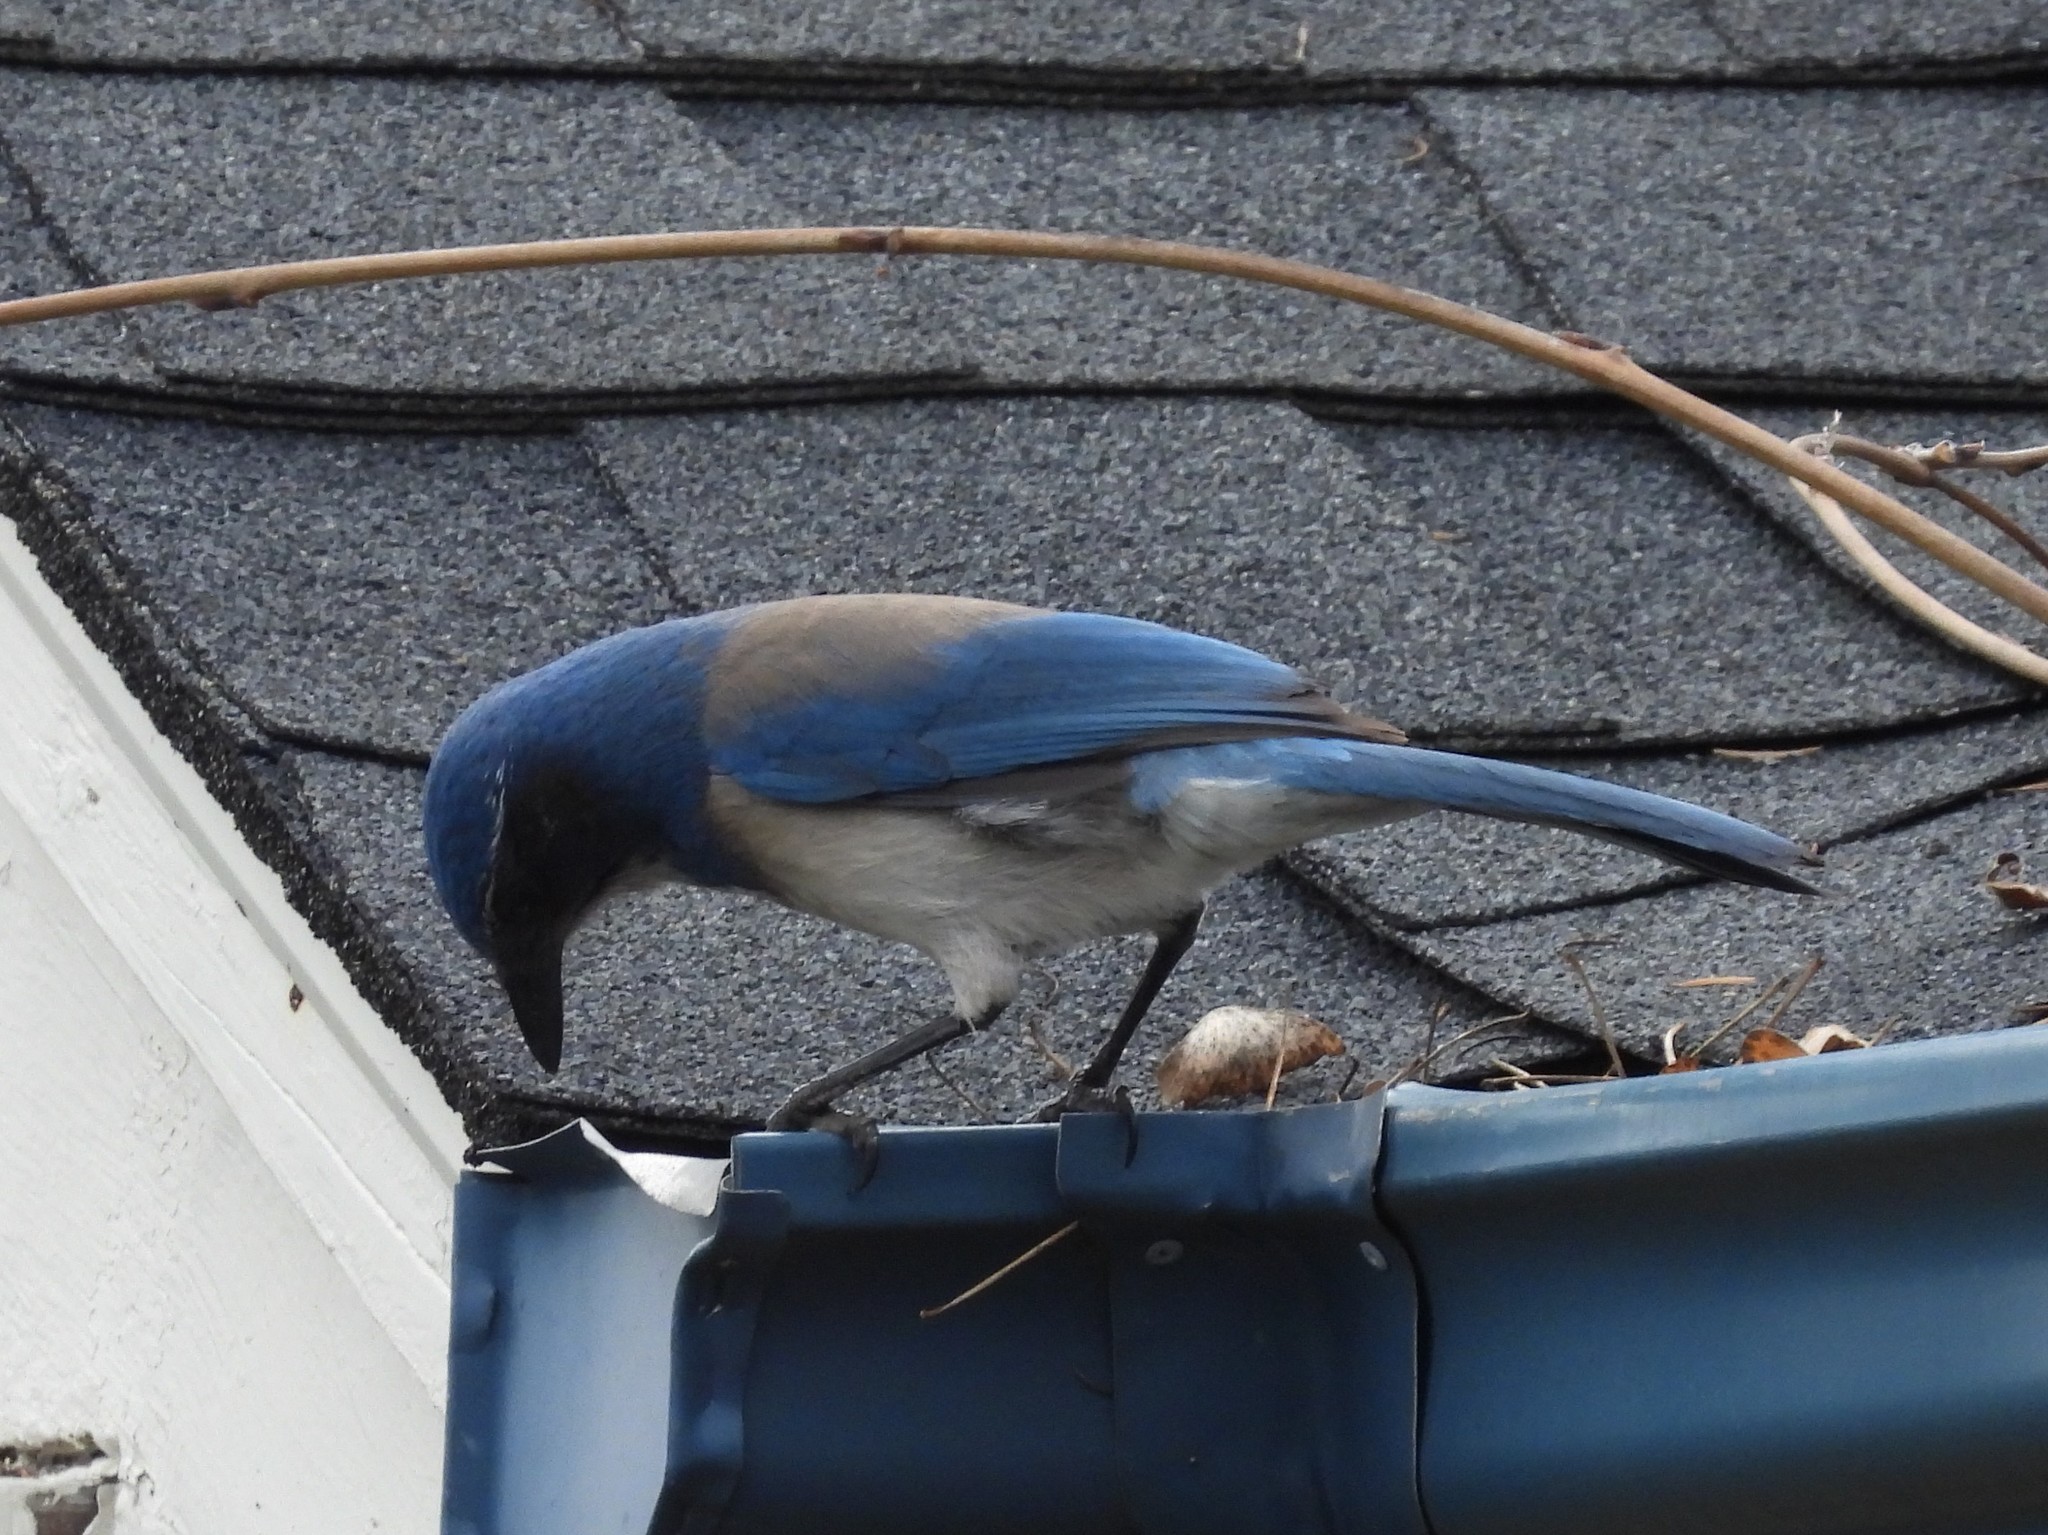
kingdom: Animalia
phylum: Chordata
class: Aves
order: Passeriformes
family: Corvidae
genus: Aphelocoma
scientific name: Aphelocoma californica
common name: California scrub-jay
